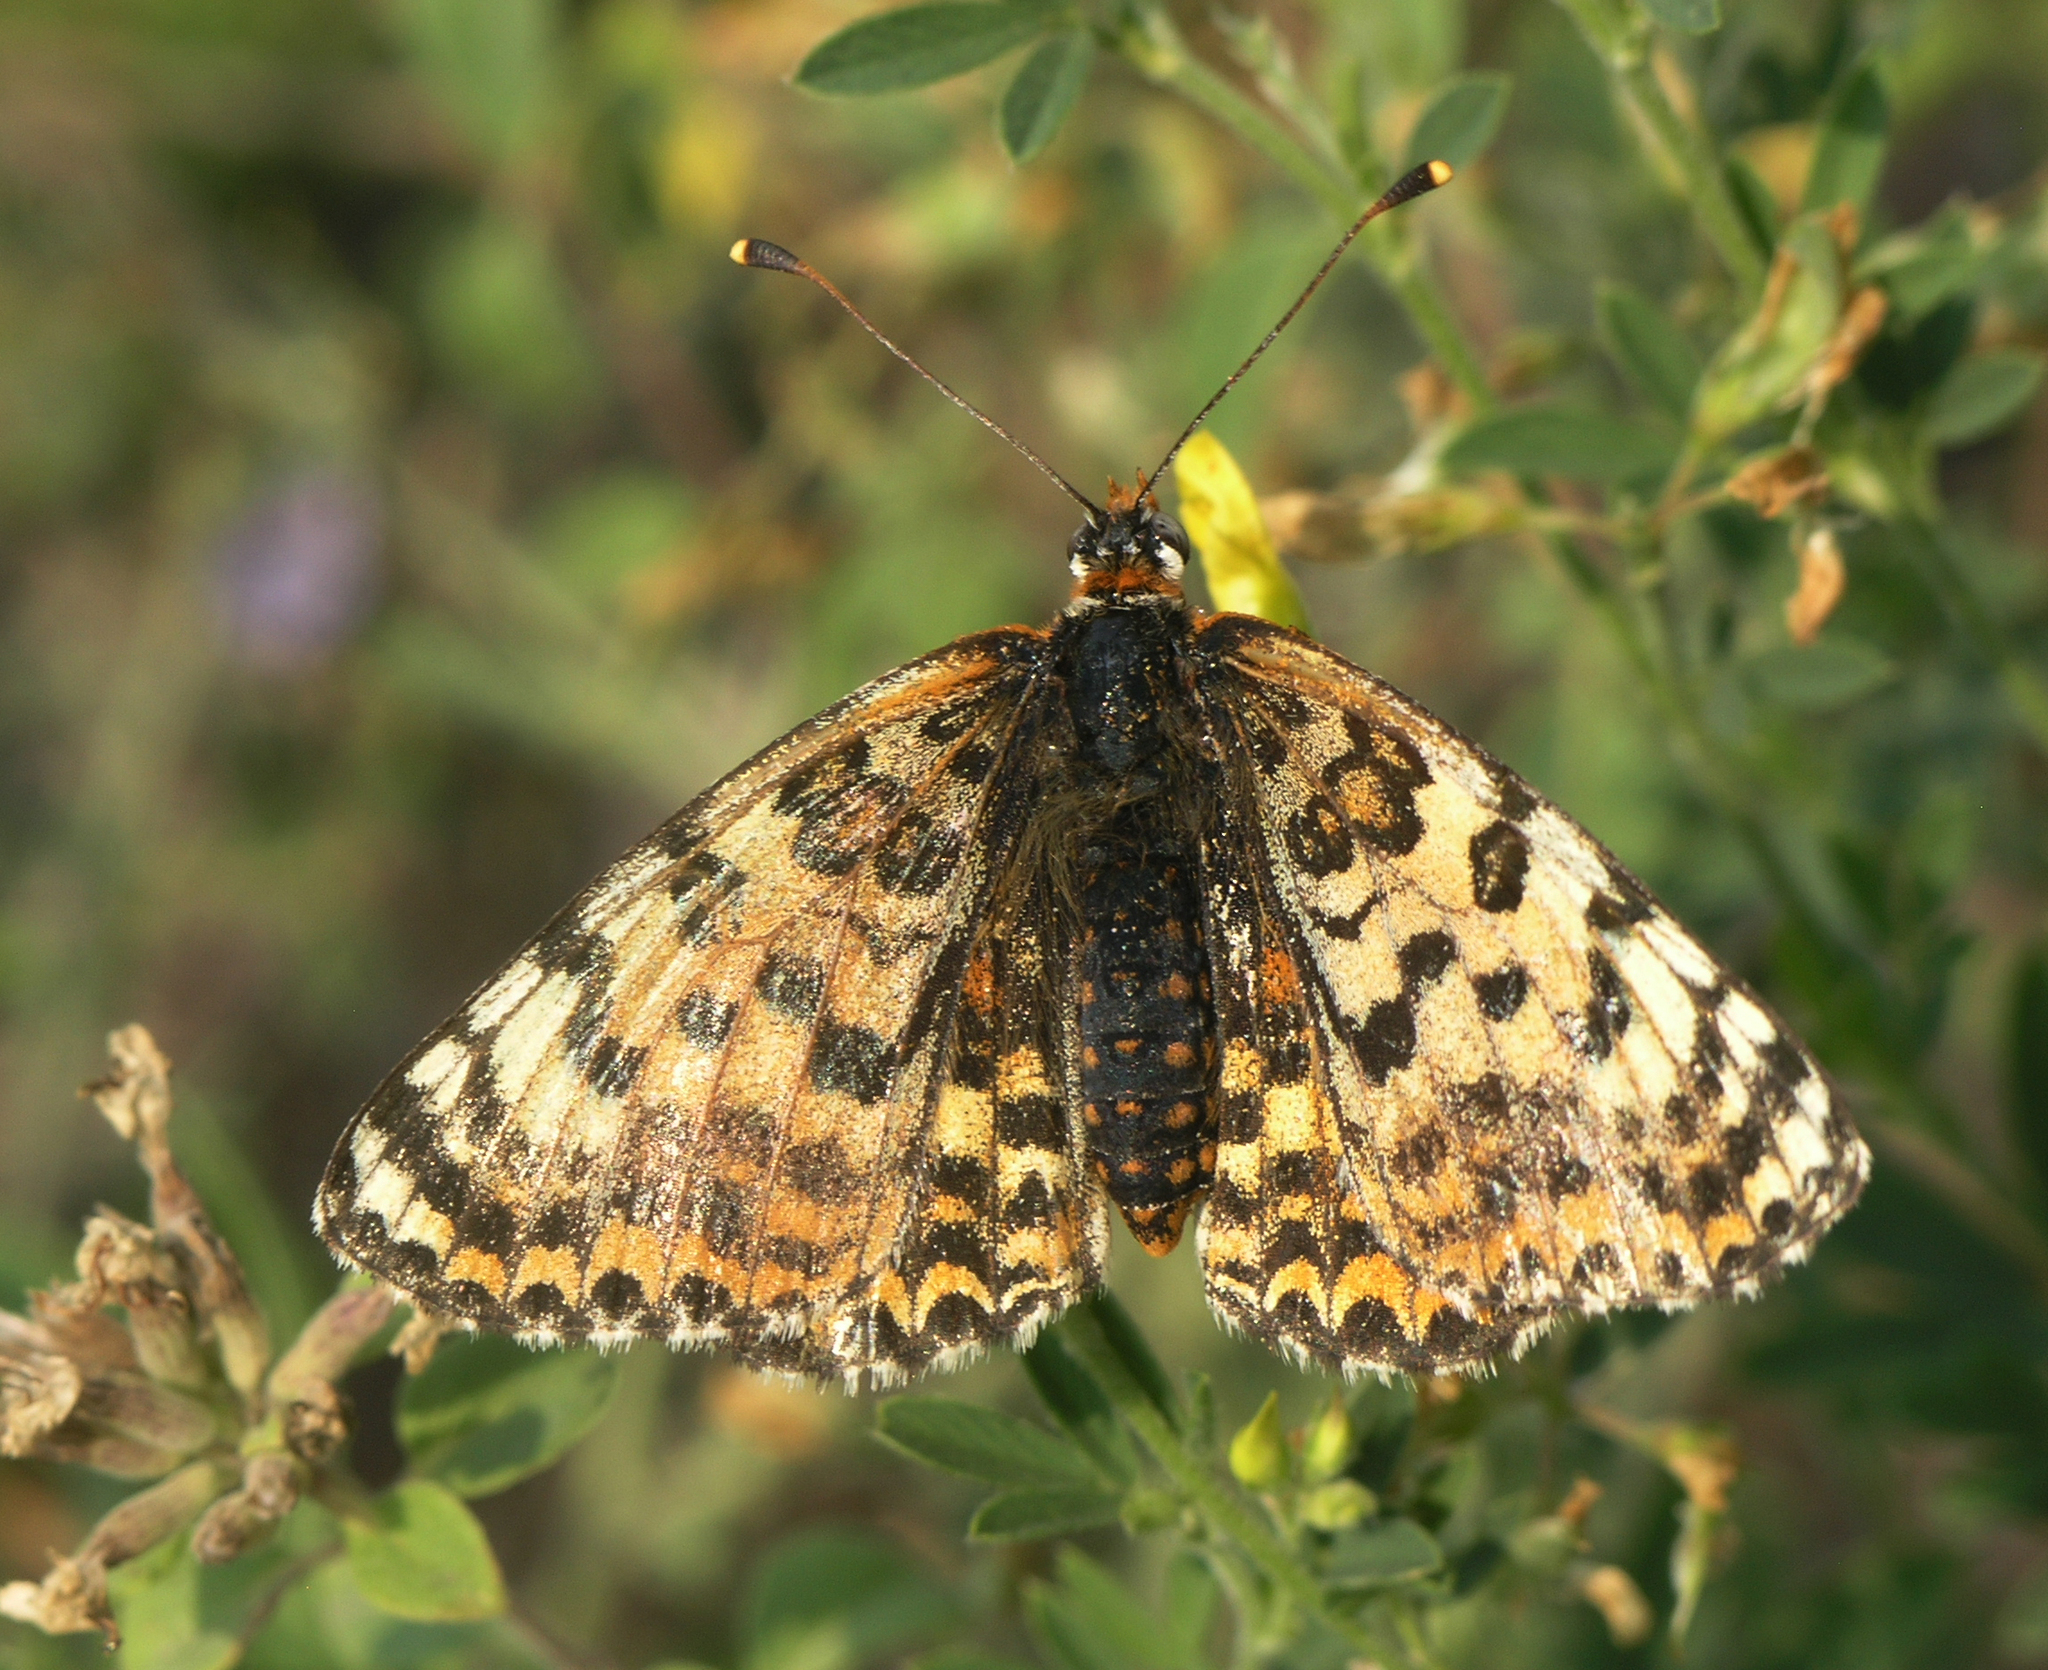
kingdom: Animalia
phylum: Arthropoda
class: Insecta
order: Lepidoptera
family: Nymphalidae
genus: Melitaea
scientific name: Melitaea didyma
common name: Spotted fritillary
